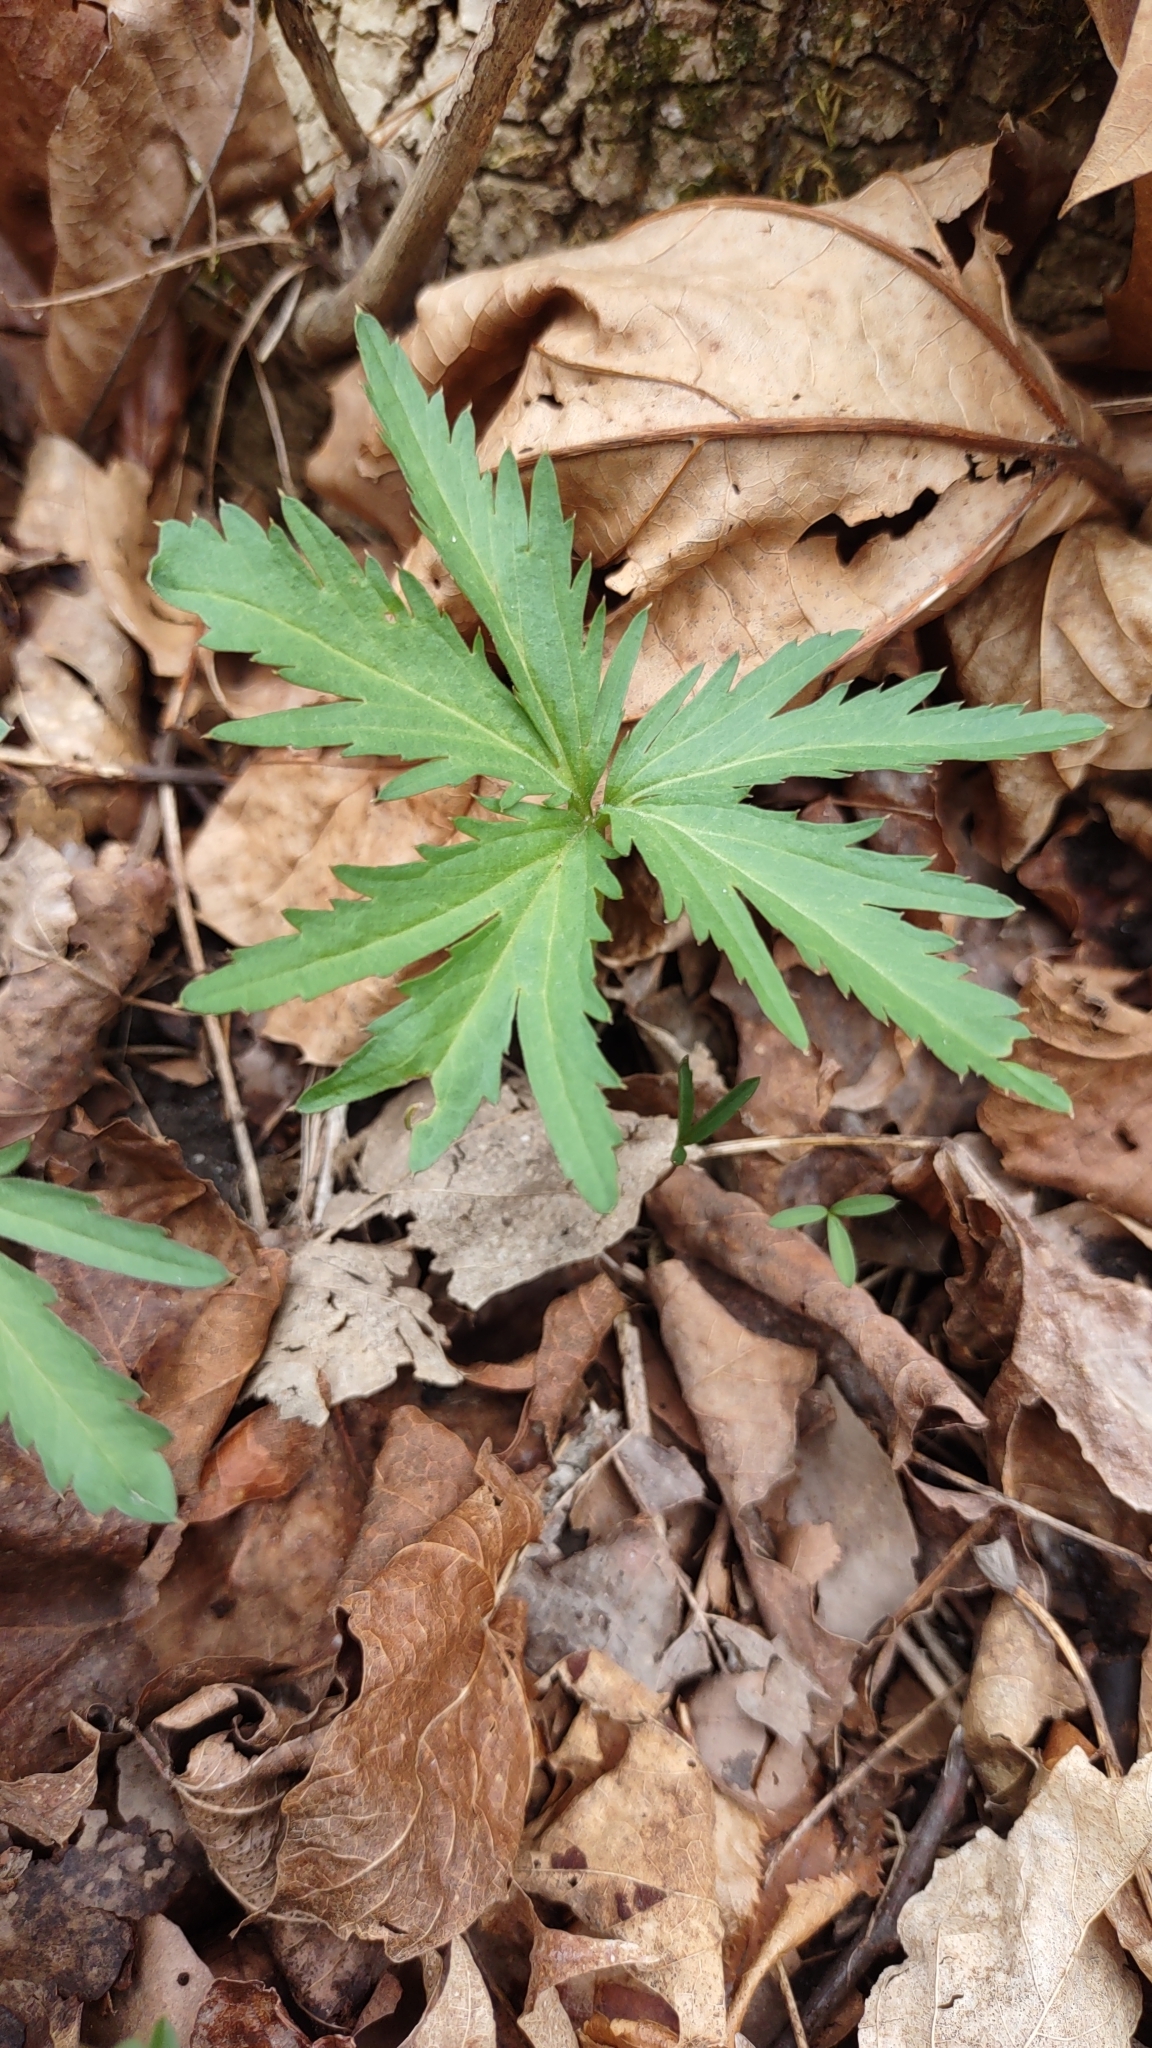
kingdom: Plantae
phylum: Tracheophyta
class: Magnoliopsida
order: Brassicales
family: Brassicaceae
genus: Cardamine
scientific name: Cardamine concatenata
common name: Cut-leaf toothcup
